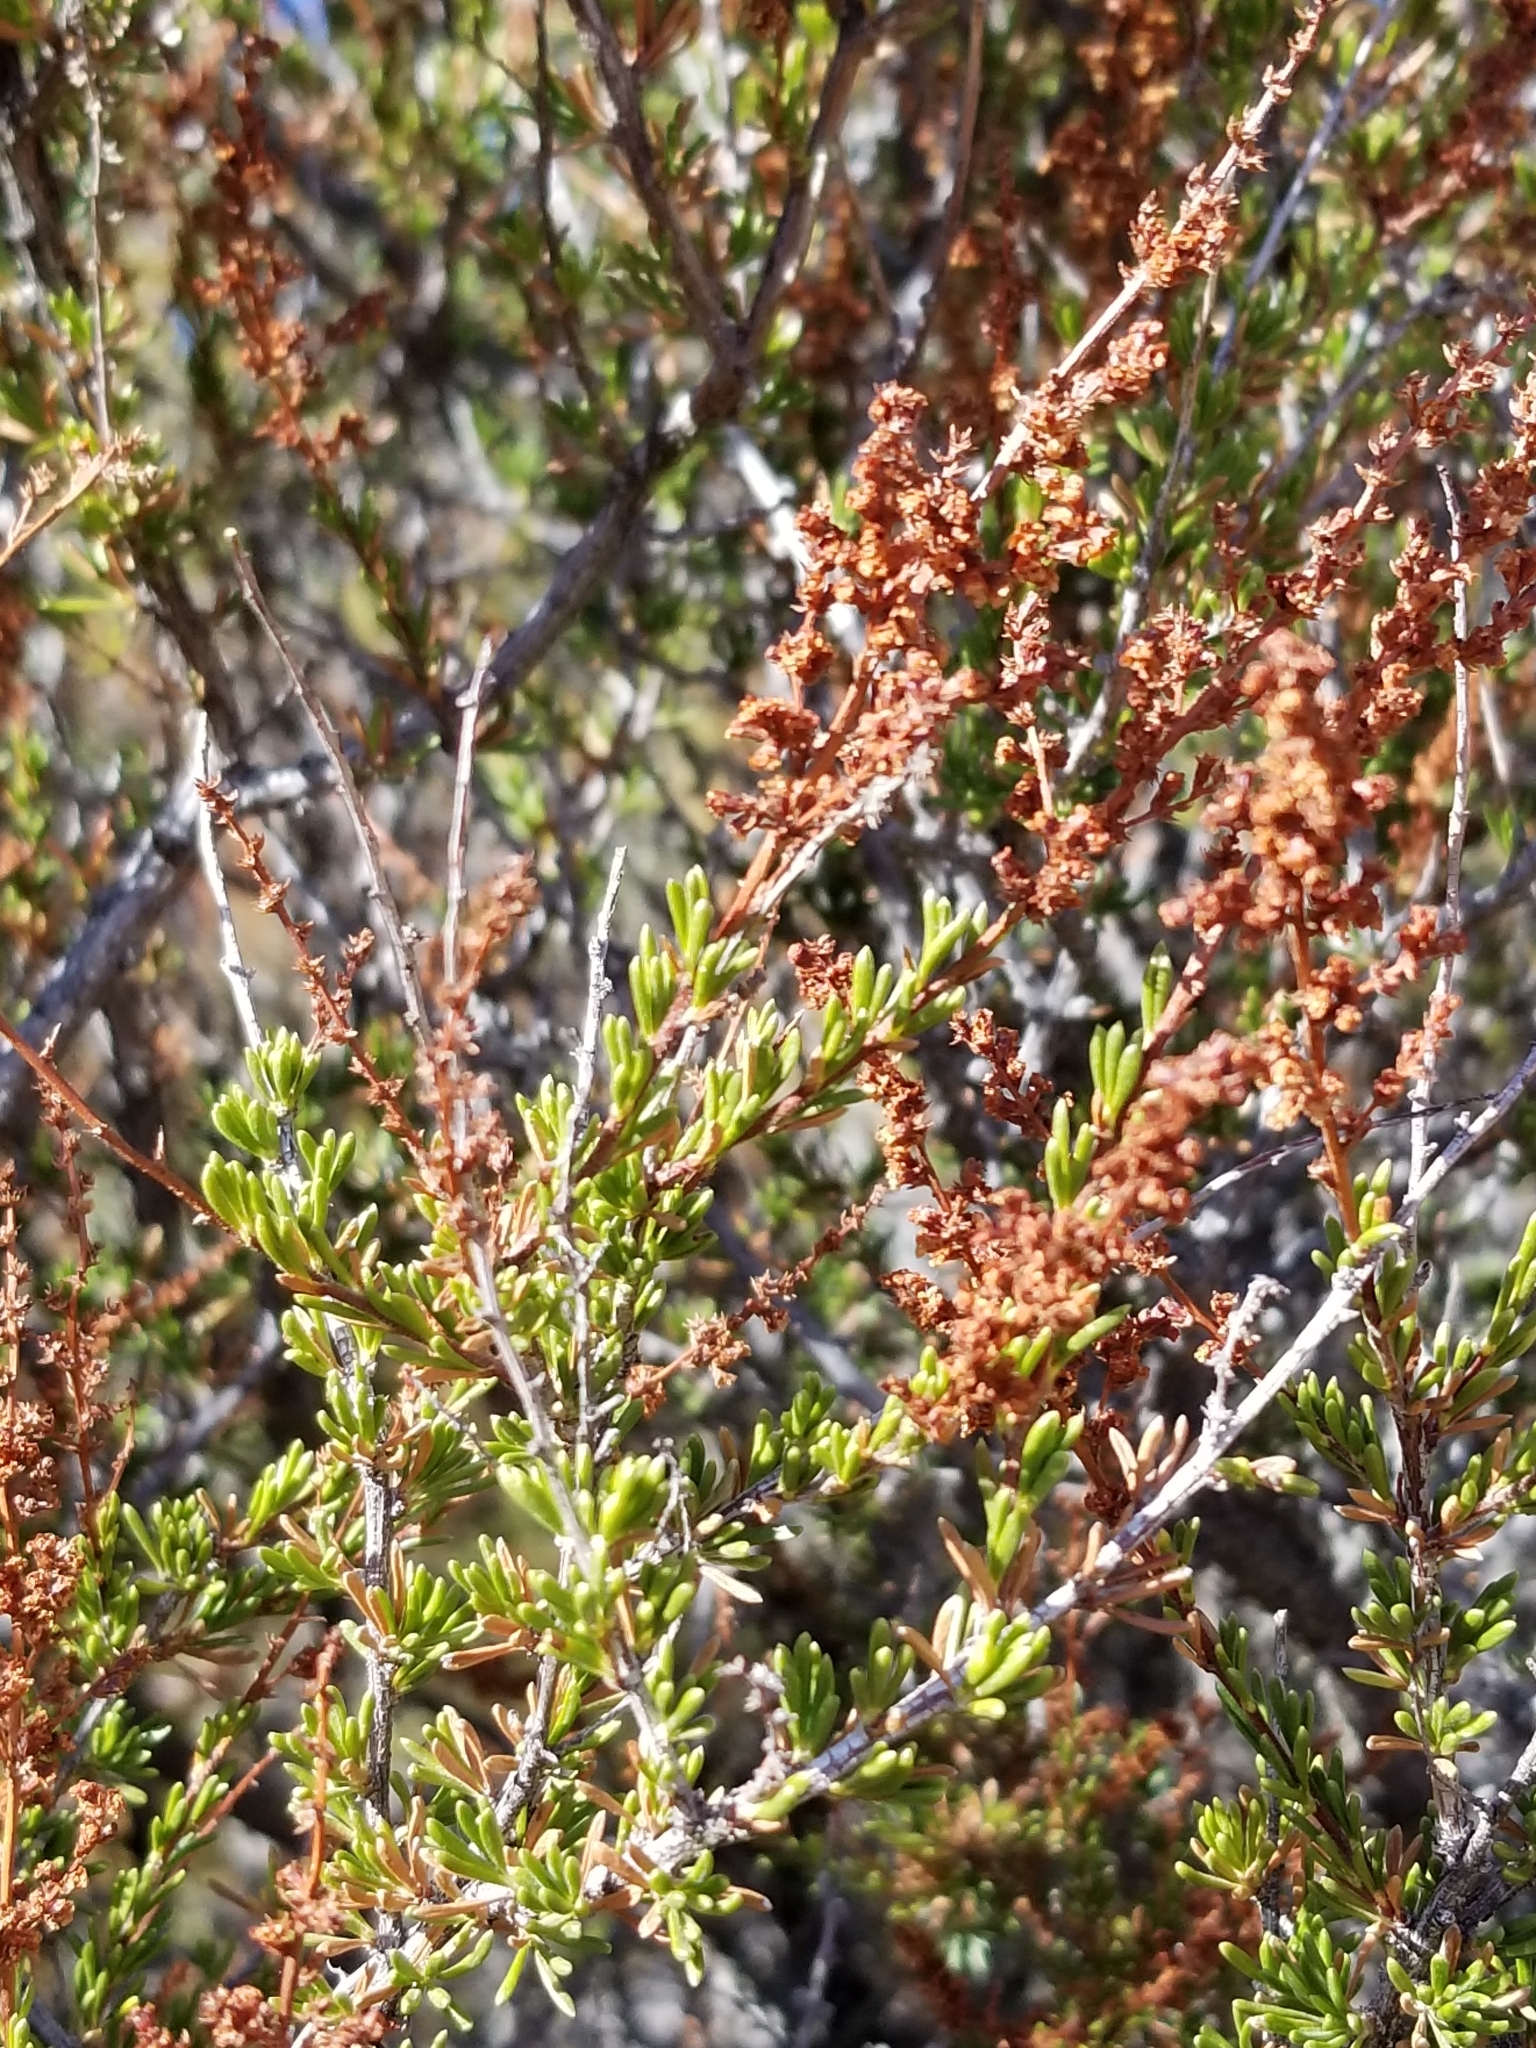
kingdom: Plantae
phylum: Tracheophyta
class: Magnoliopsida
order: Rosales
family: Rosaceae
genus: Adenostoma
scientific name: Adenostoma fasciculatum
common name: Chamise
